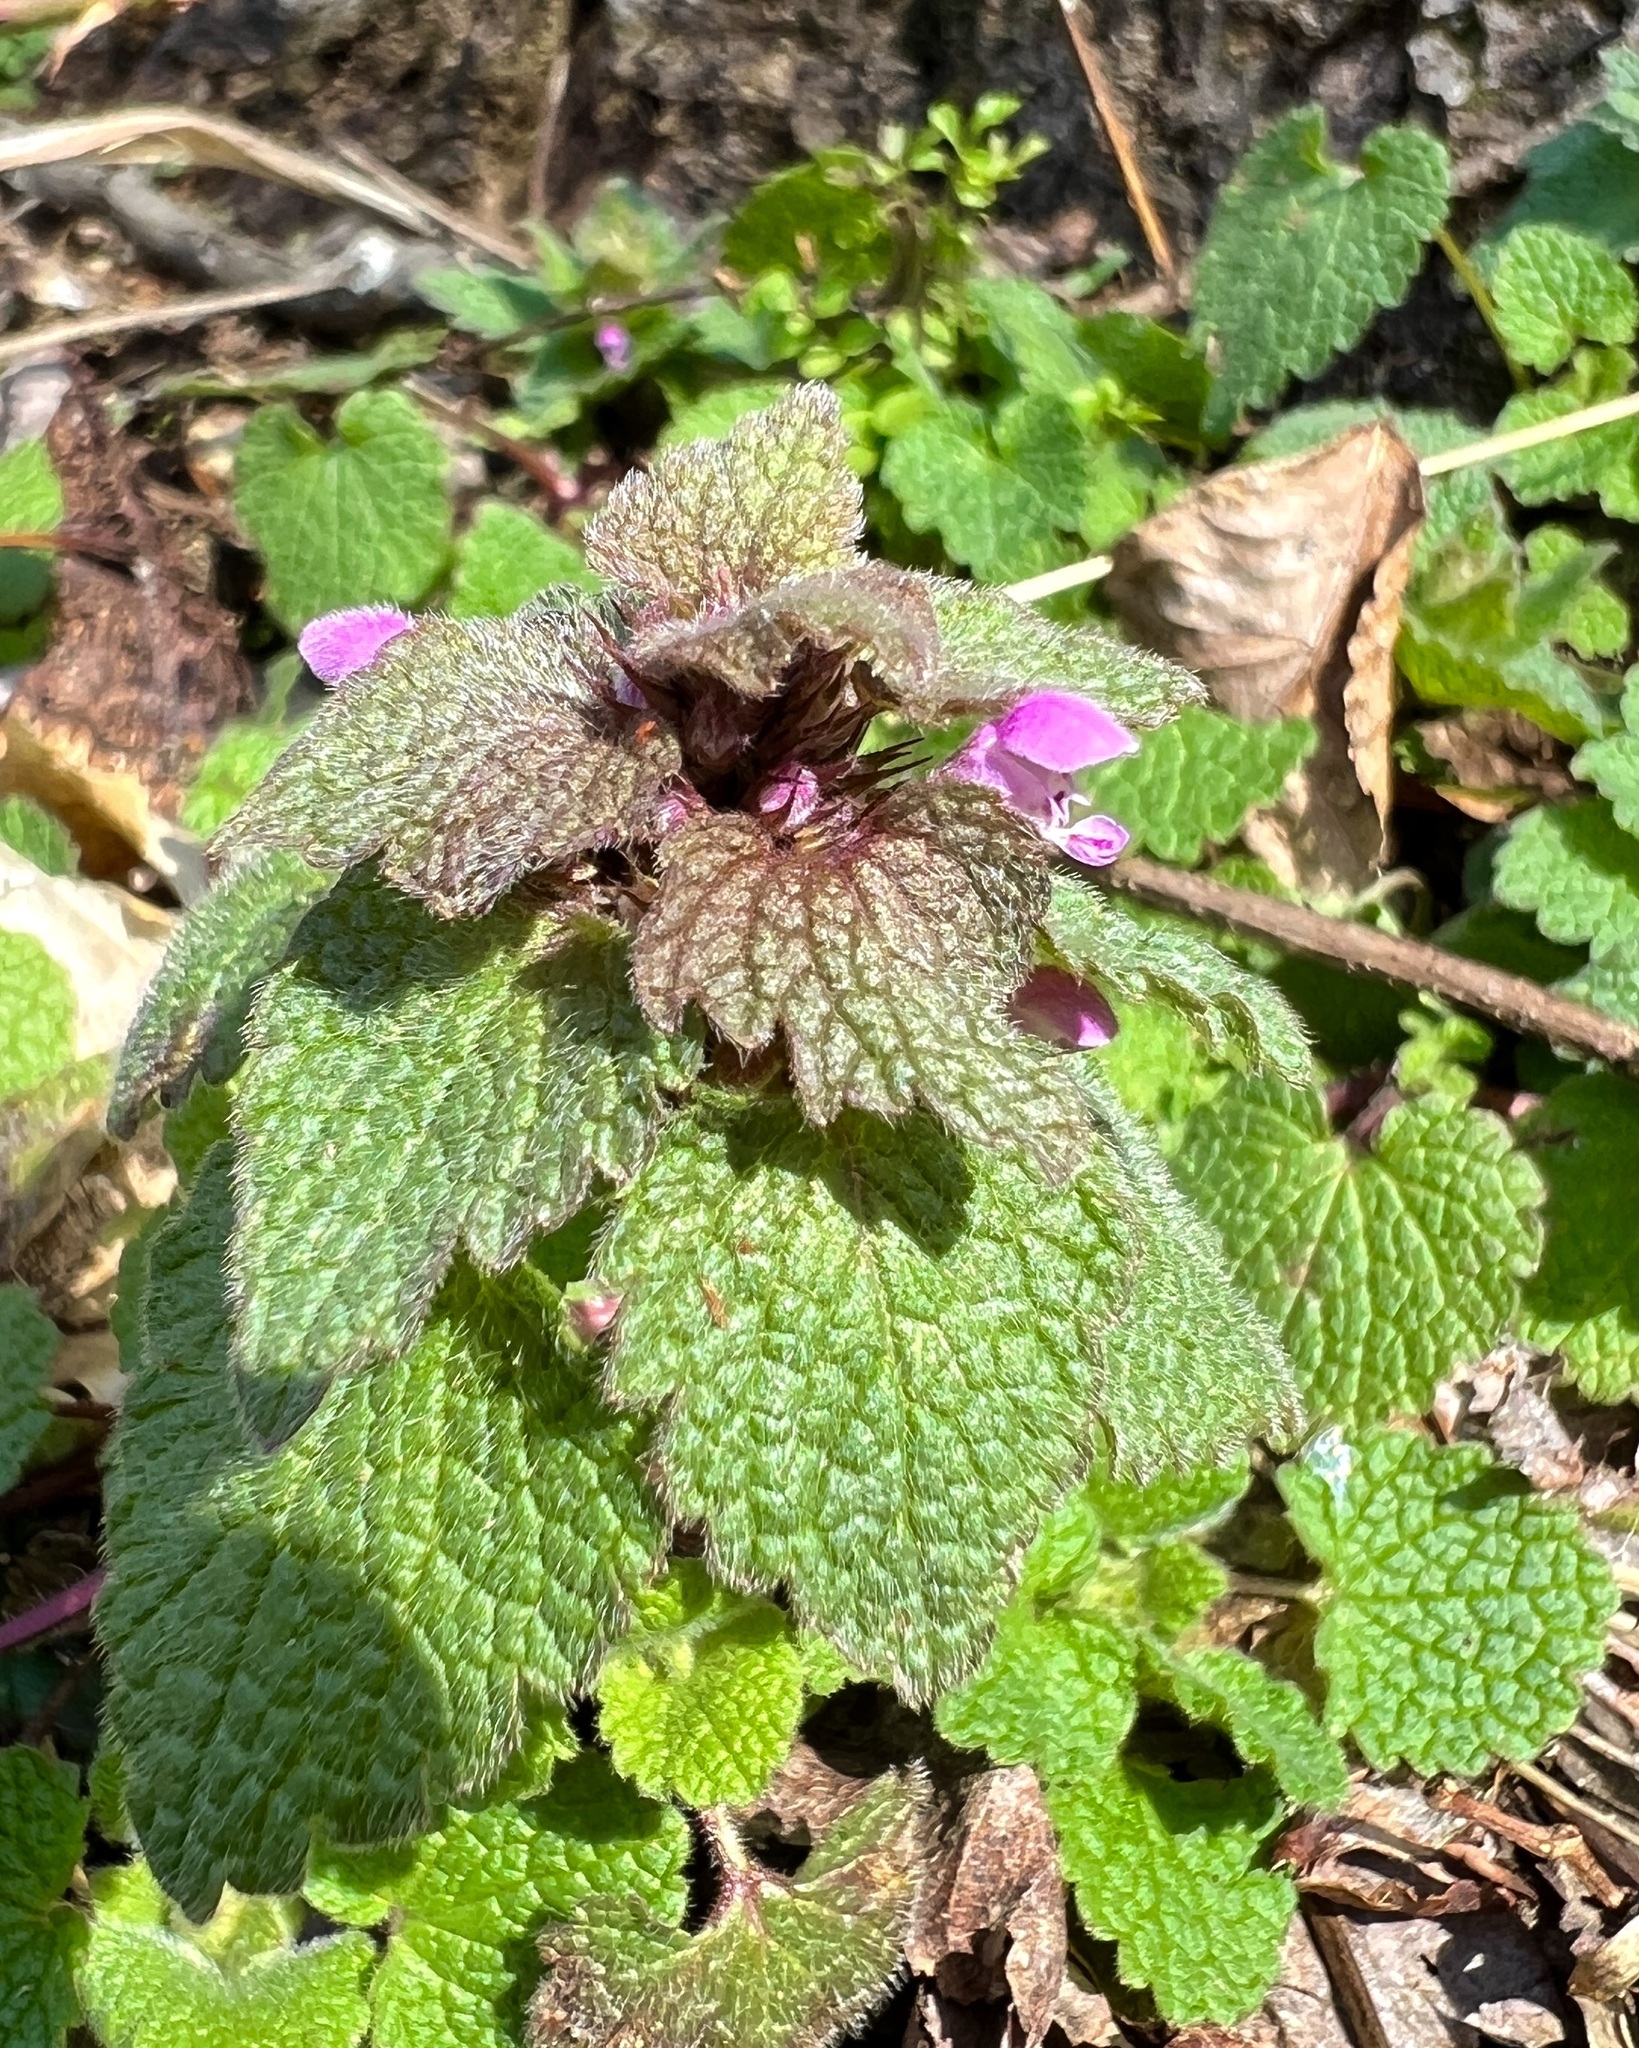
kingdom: Plantae
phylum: Tracheophyta
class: Magnoliopsida
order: Lamiales
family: Lamiaceae
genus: Lamium
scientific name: Lamium purpureum
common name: Red dead-nettle
